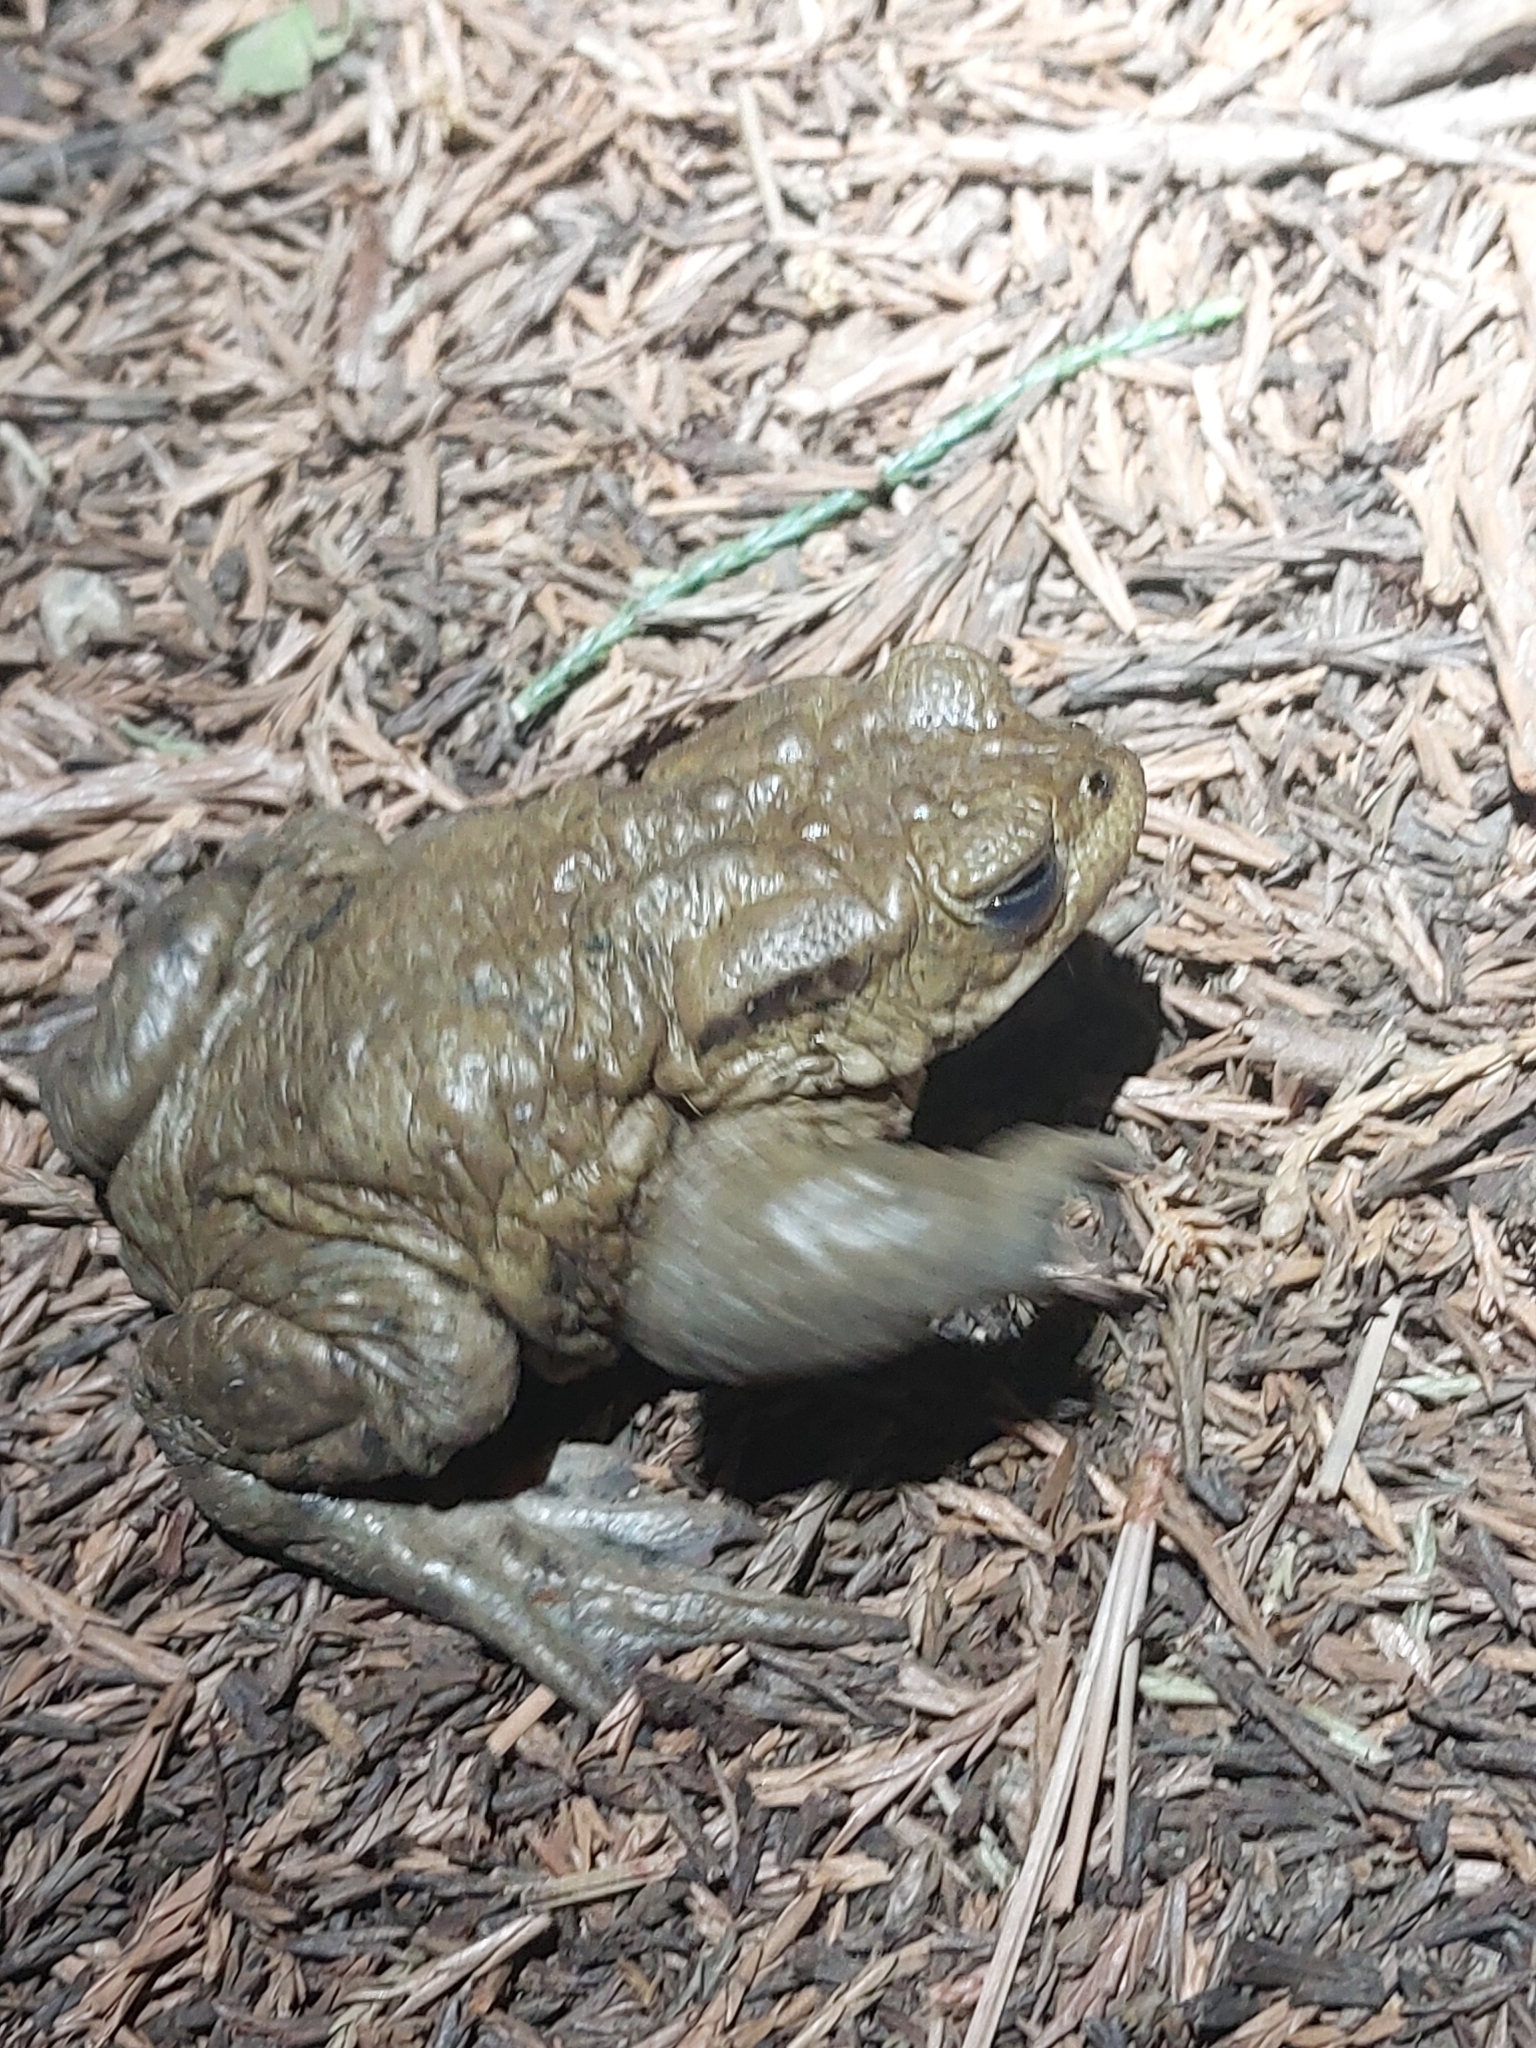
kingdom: Animalia
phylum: Chordata
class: Amphibia
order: Anura
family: Bufonidae
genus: Bufo
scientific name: Bufo bufo
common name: Common toad
